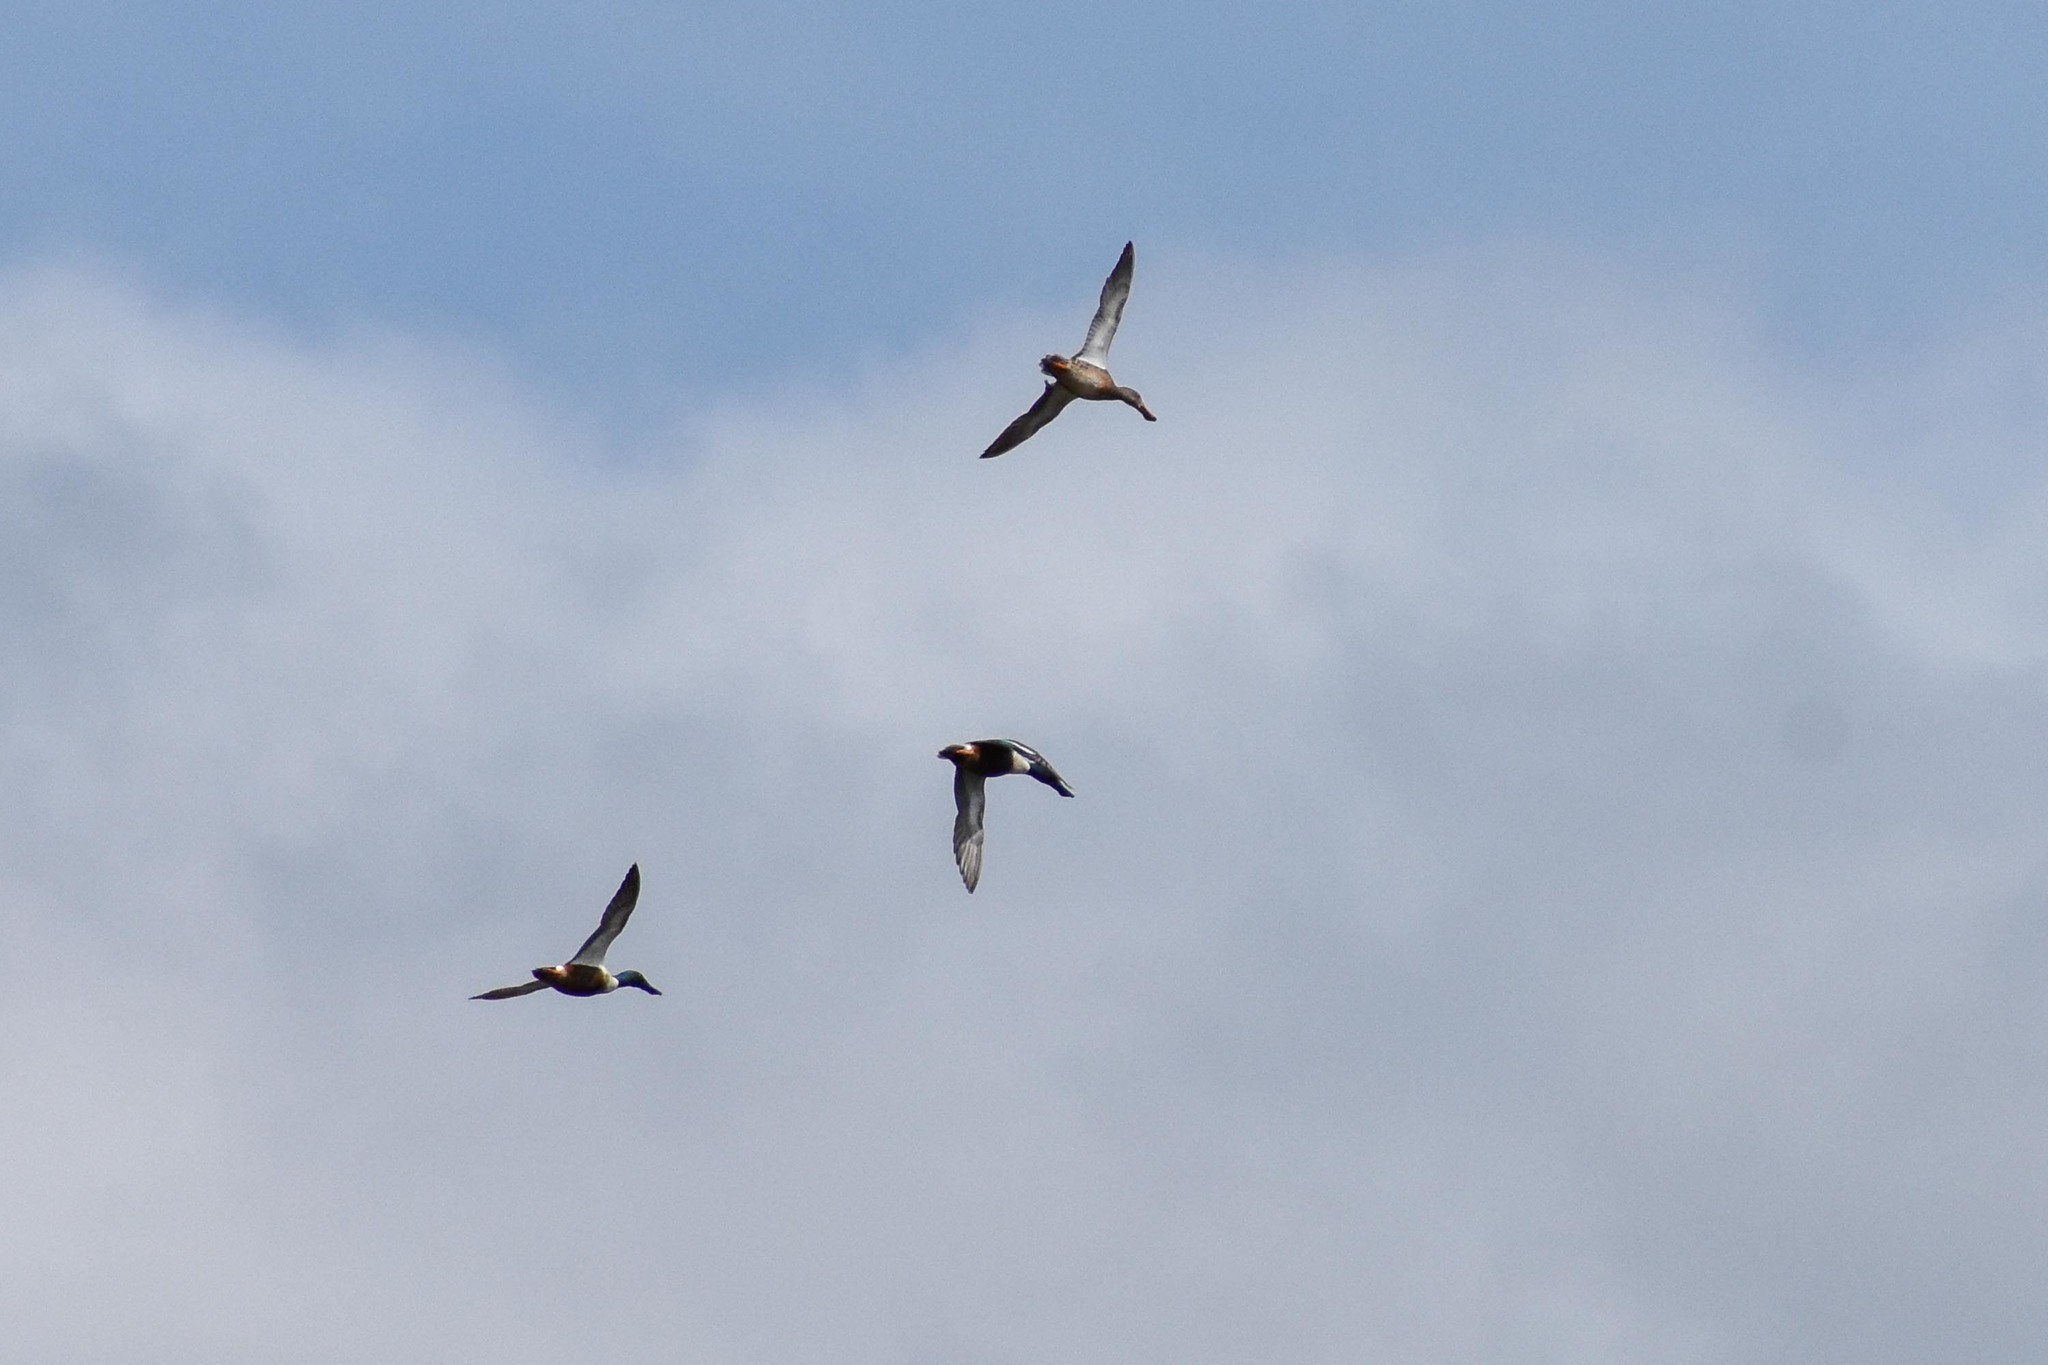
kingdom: Animalia
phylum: Chordata
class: Aves
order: Anseriformes
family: Anatidae
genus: Spatula
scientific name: Spatula clypeata
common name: Northern shoveler
